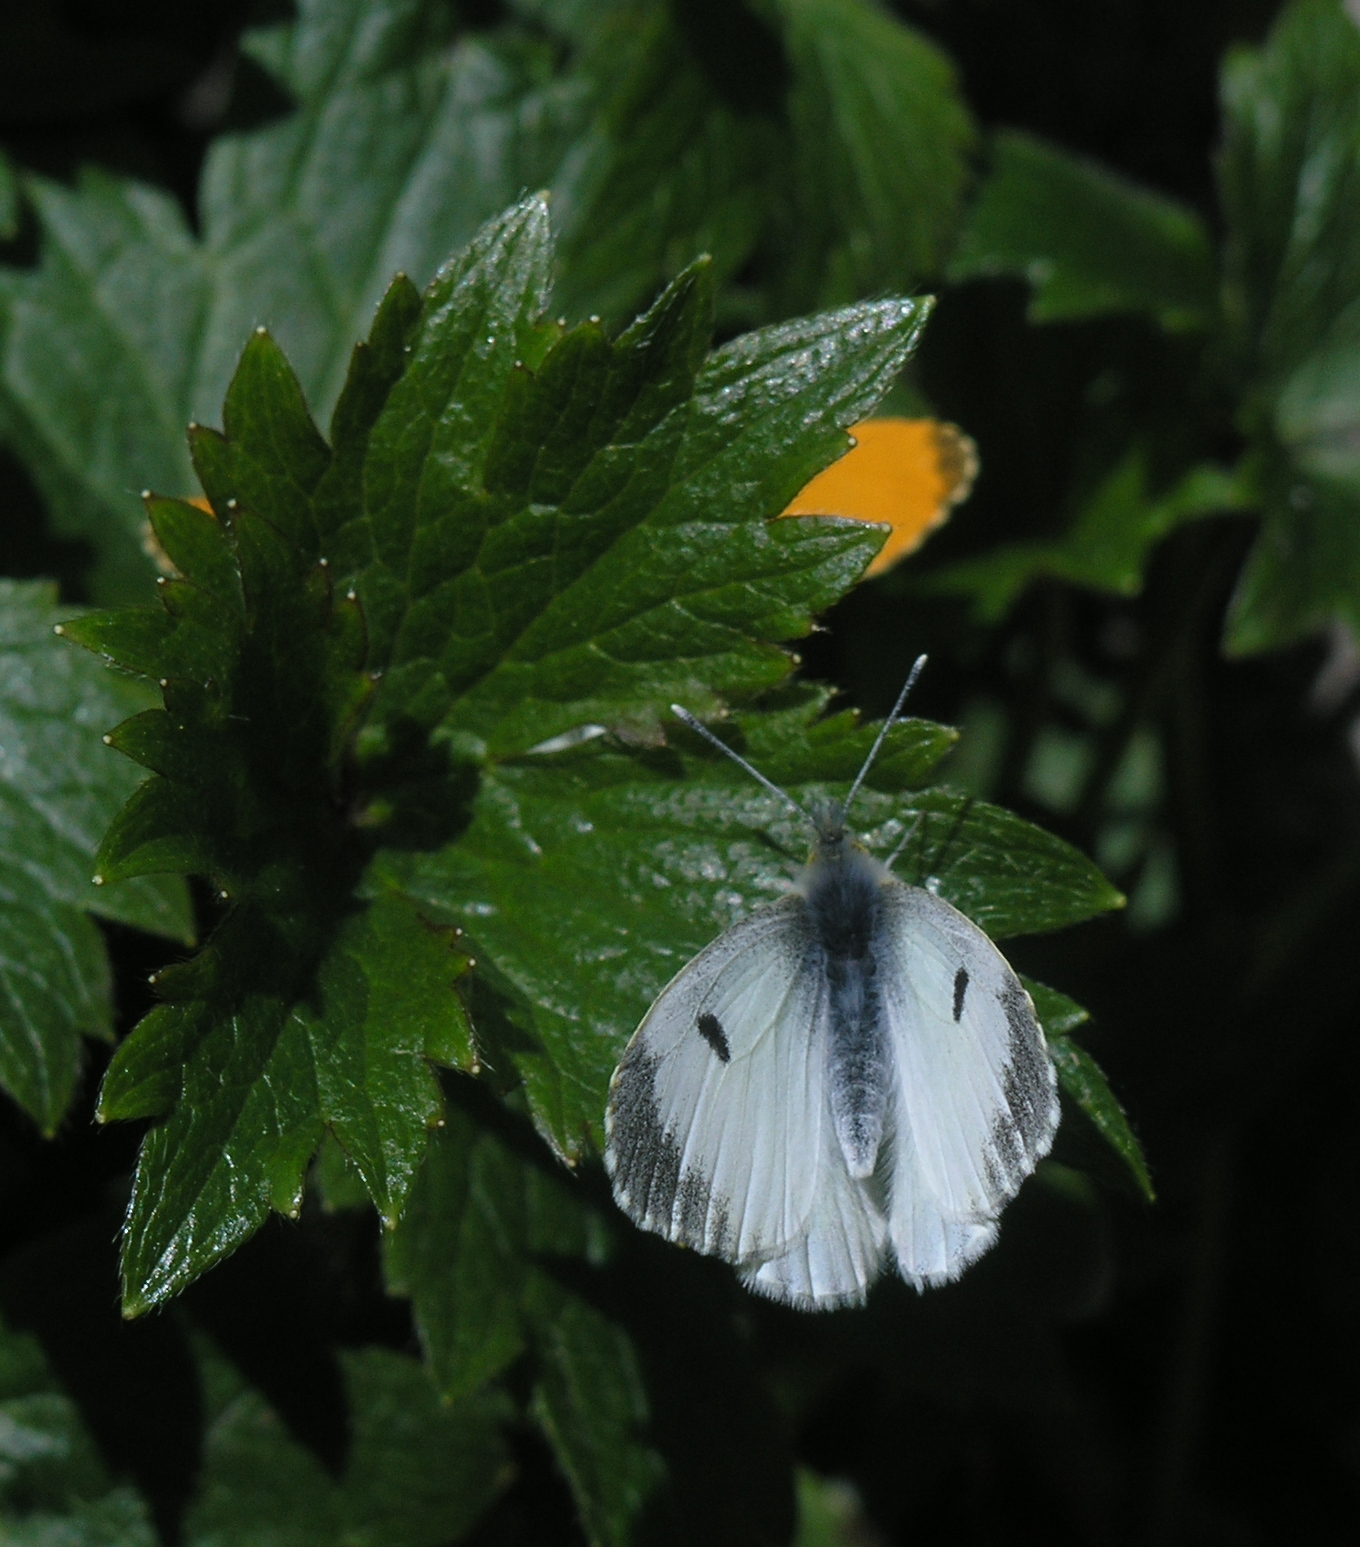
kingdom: Animalia
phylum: Arthropoda
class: Insecta
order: Lepidoptera
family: Pieridae
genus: Anthocharis
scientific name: Anthocharis cardamines
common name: Orange-tip
